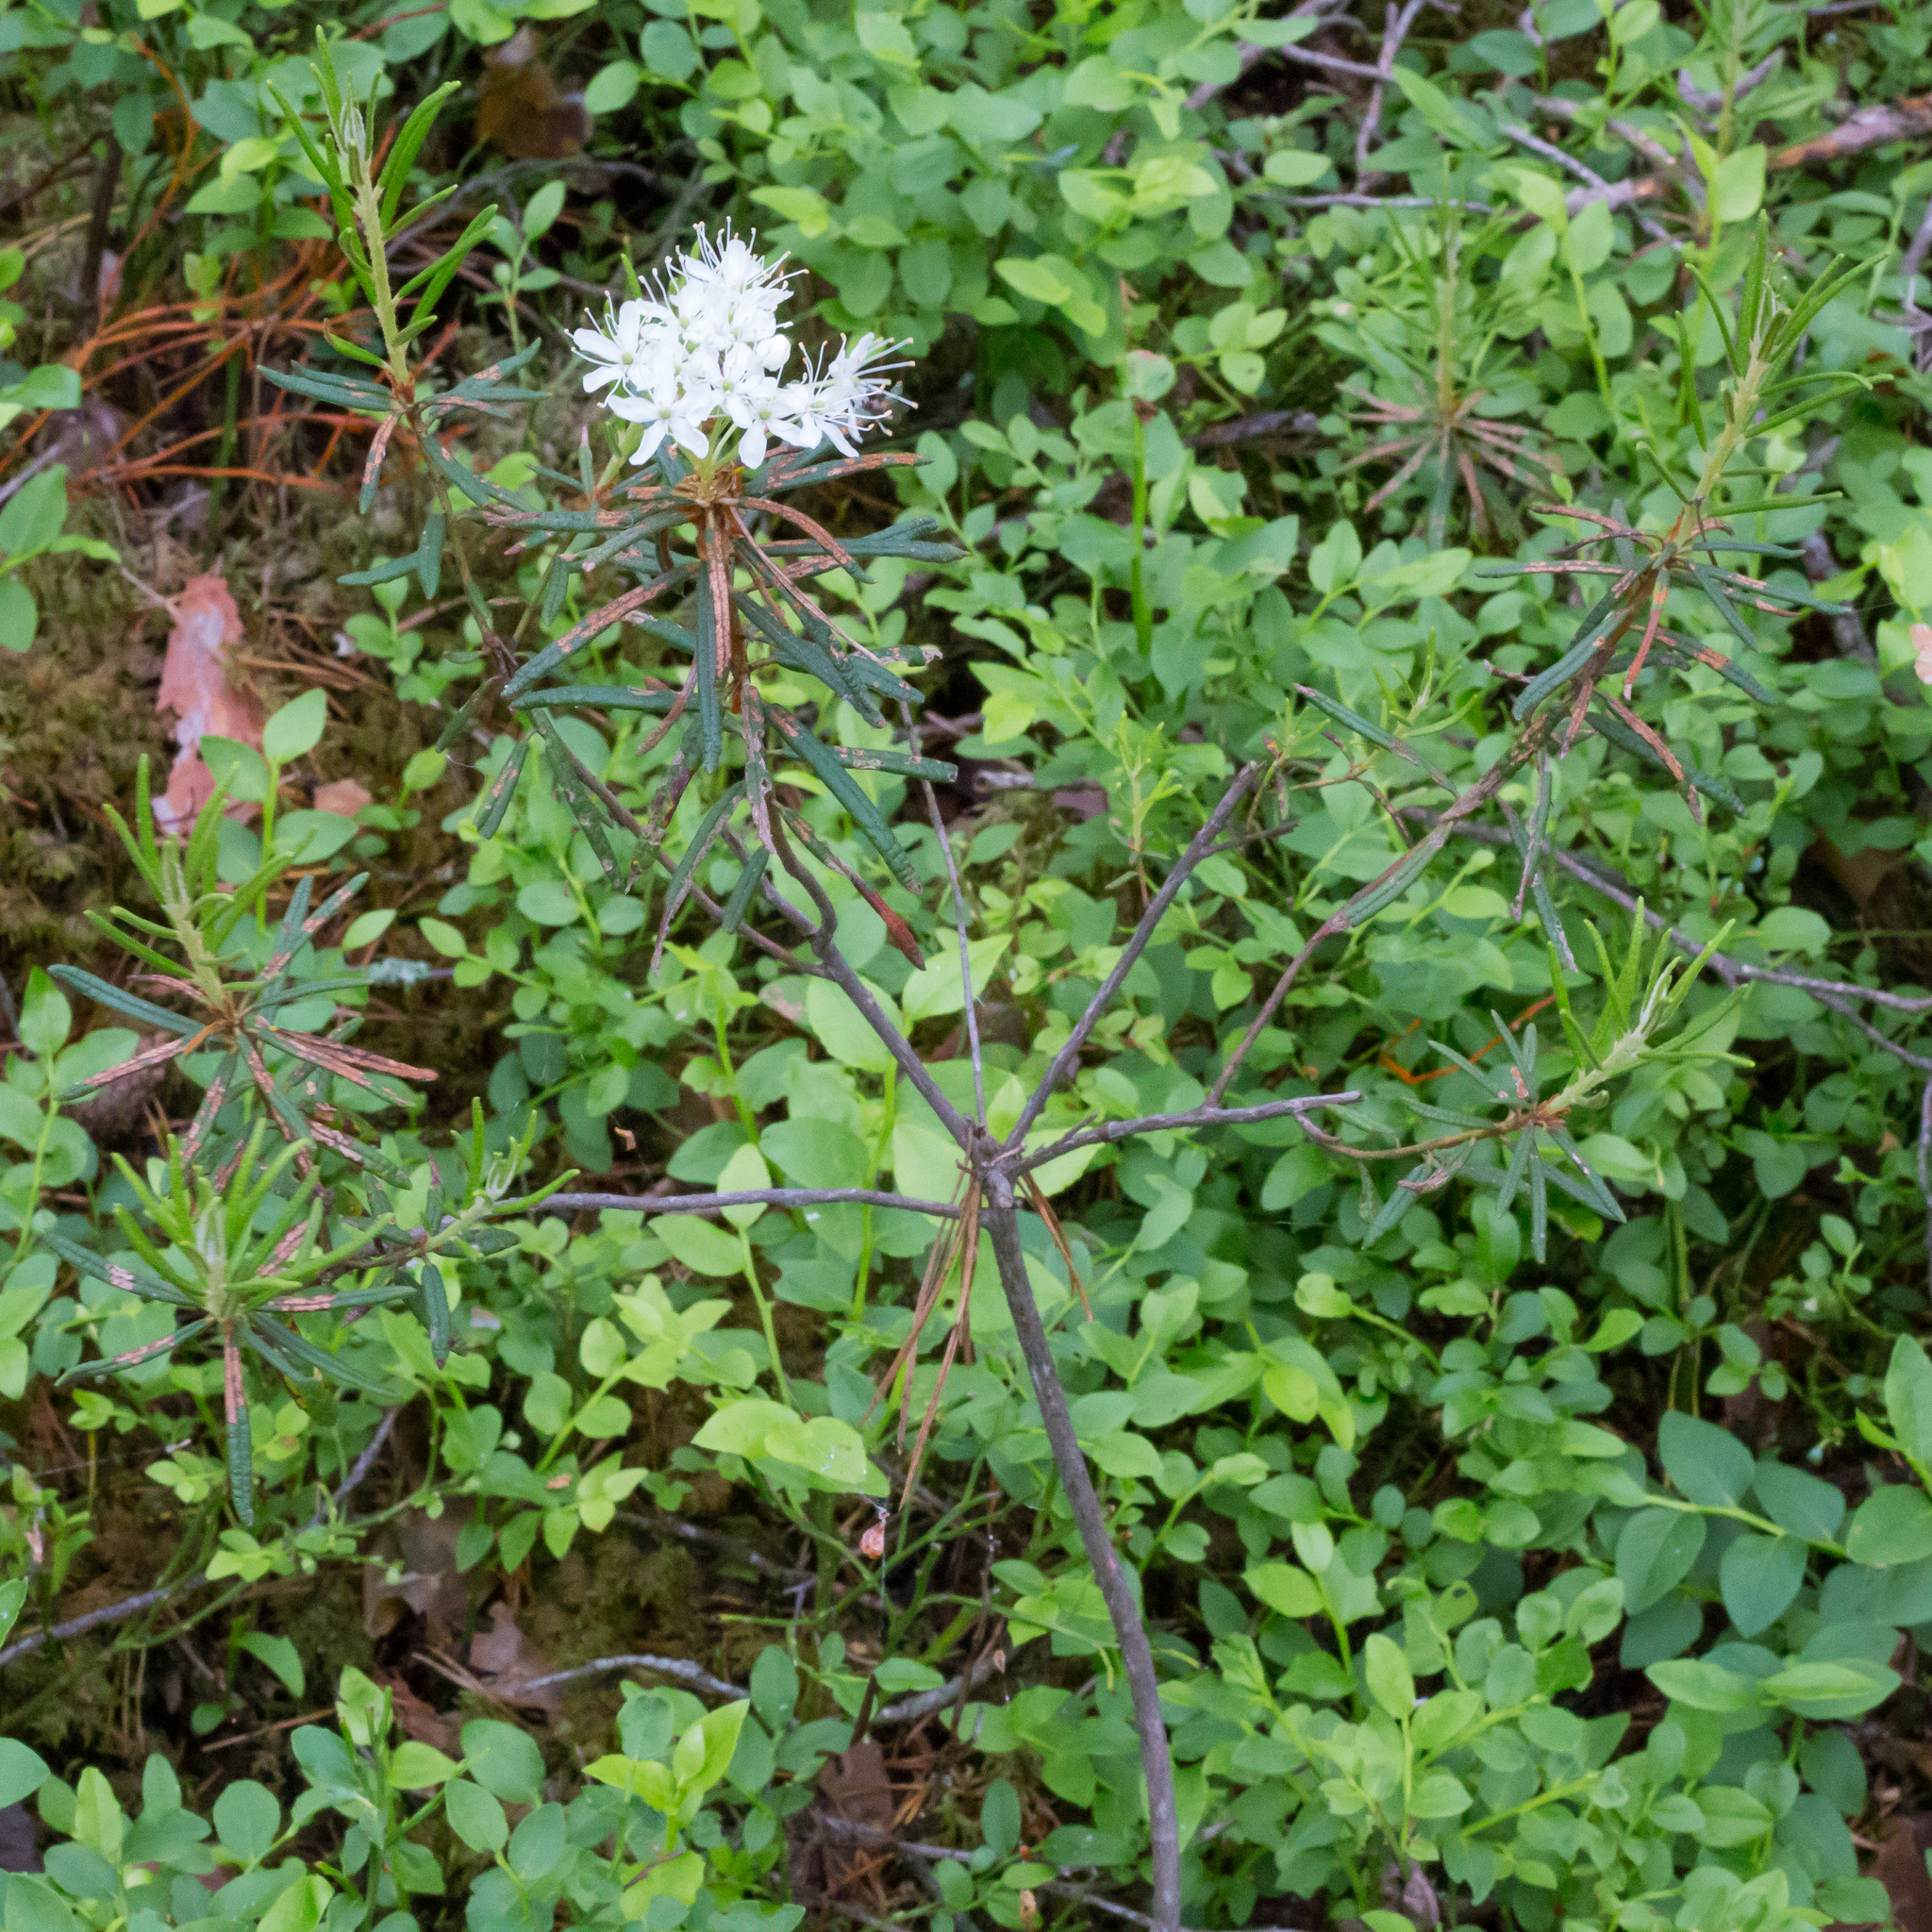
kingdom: Plantae
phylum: Tracheophyta
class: Magnoliopsida
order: Ericales
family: Ericaceae
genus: Rhododendron
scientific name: Rhododendron tomentosum
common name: Marsh labrador tea
